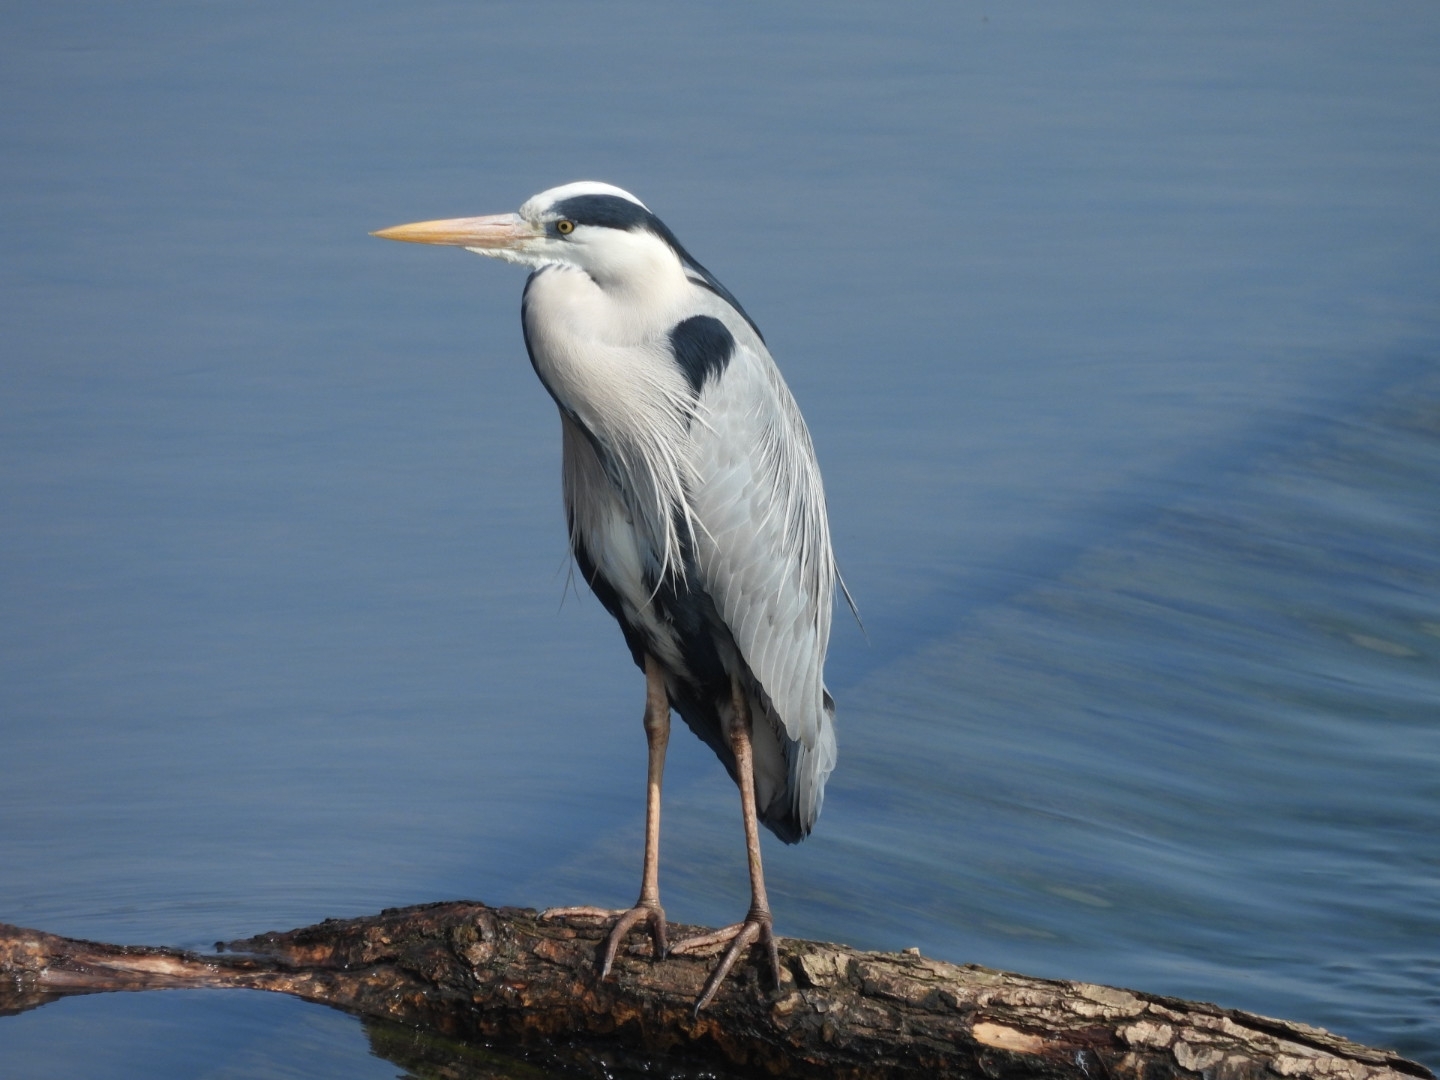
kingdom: Animalia
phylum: Chordata
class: Aves
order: Pelecaniformes
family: Ardeidae
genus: Ardea
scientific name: Ardea cinerea
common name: Grey heron
